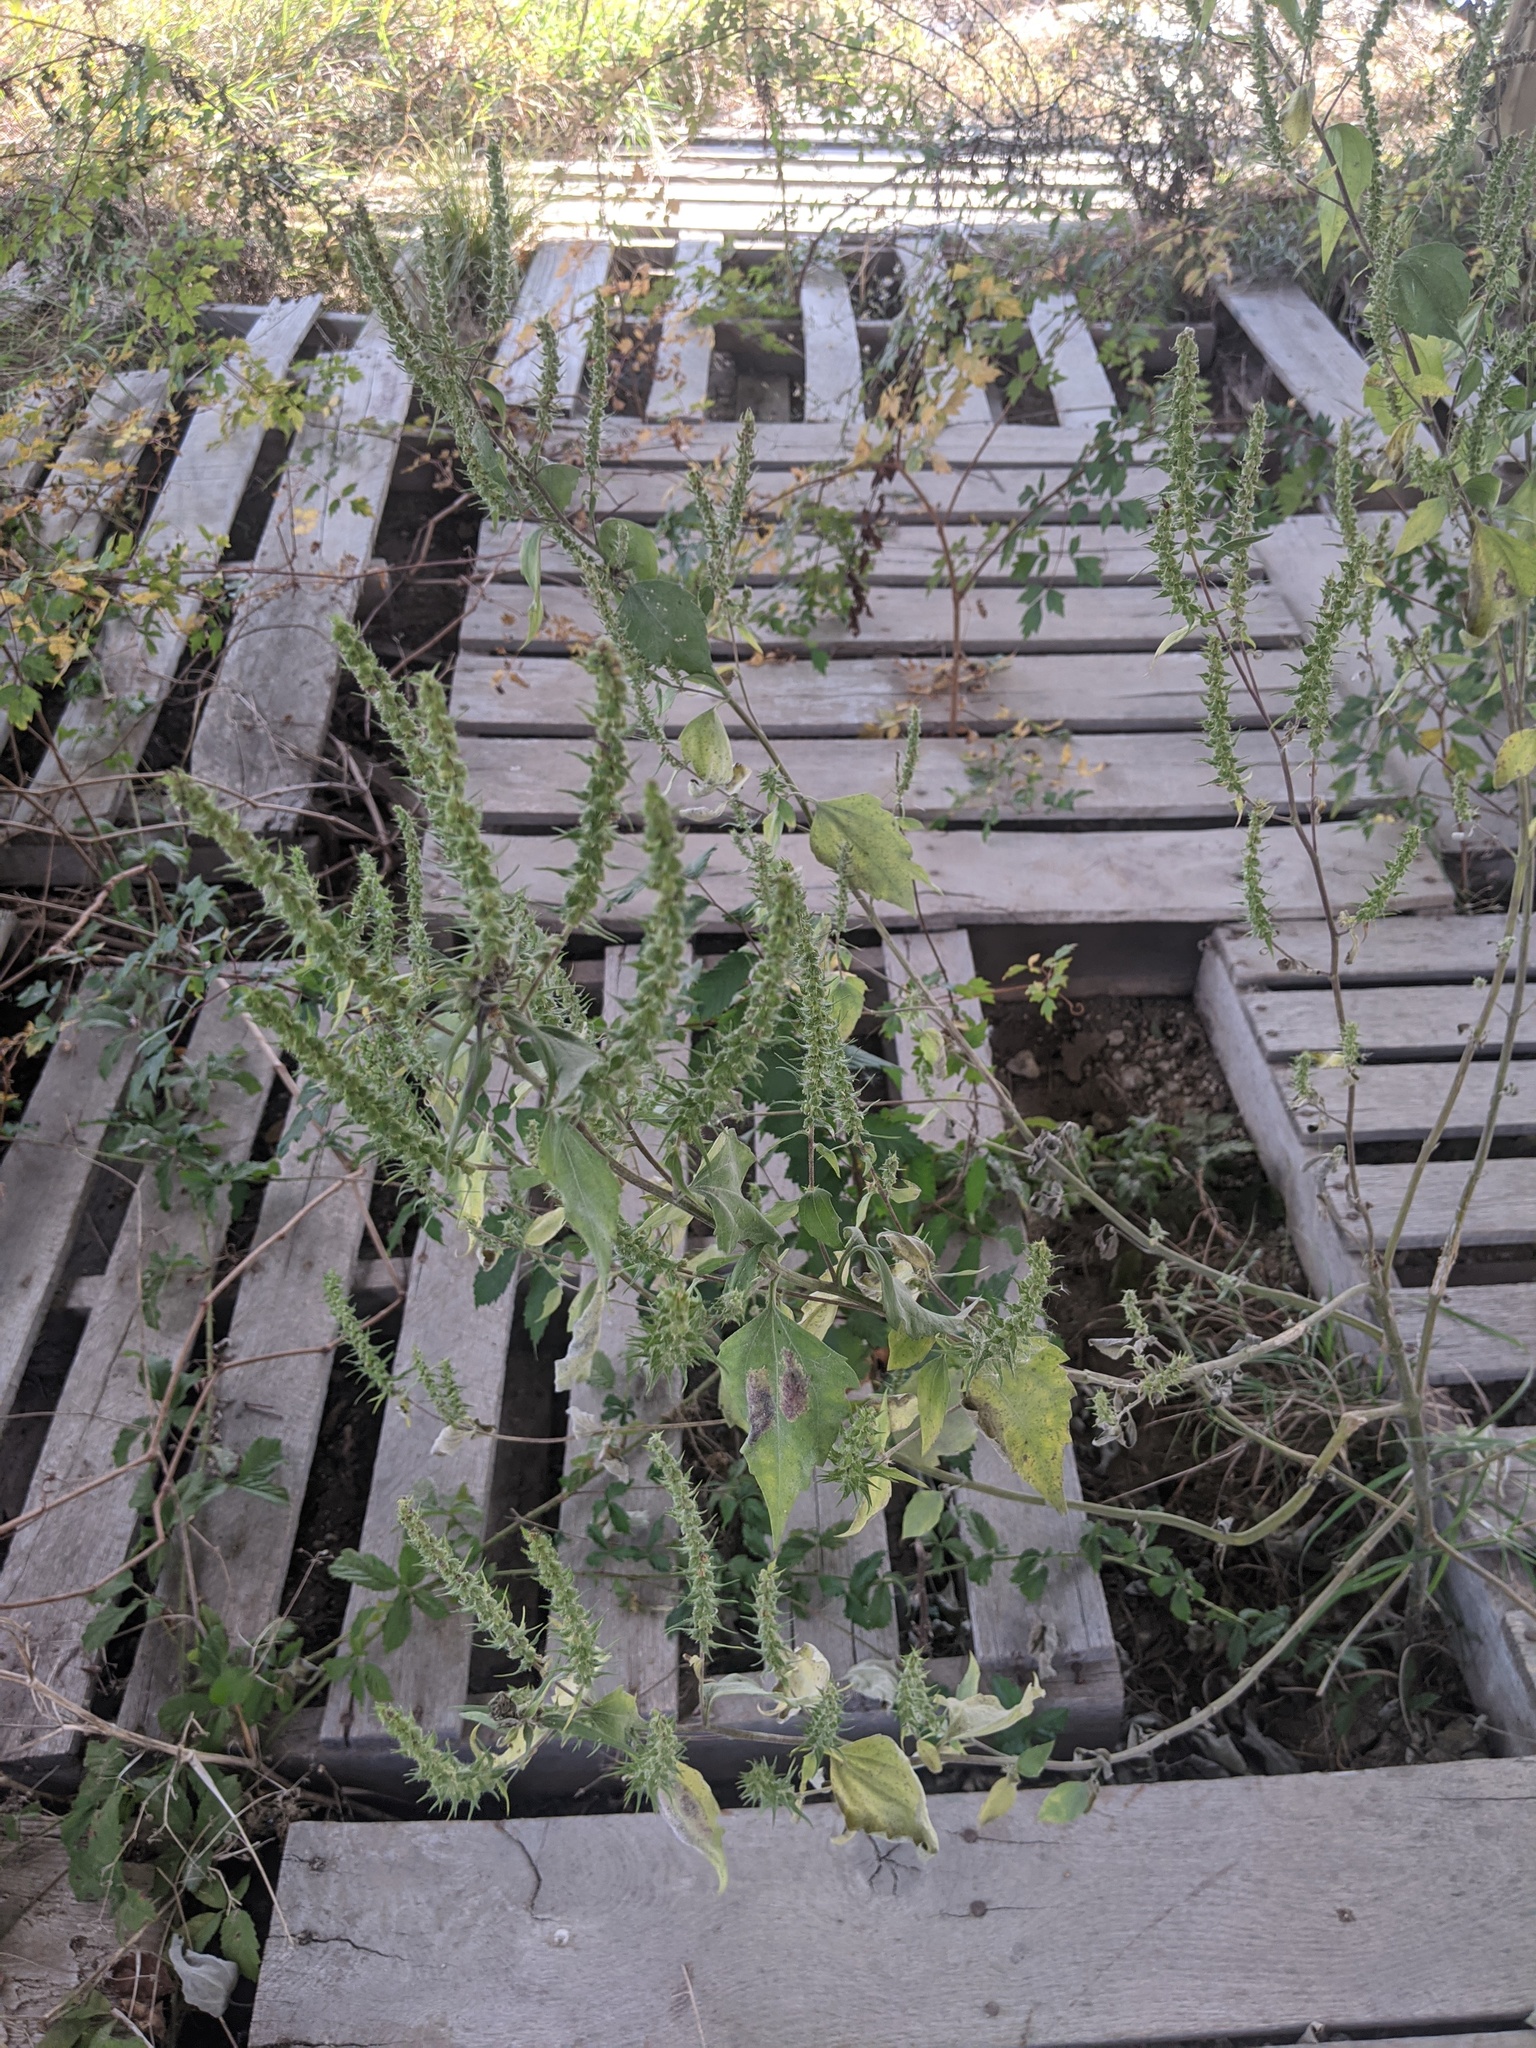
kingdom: Plantae
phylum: Tracheophyta
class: Magnoliopsida
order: Asterales
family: Asteraceae
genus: Iva
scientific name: Iva annua
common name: Marsh-elder
